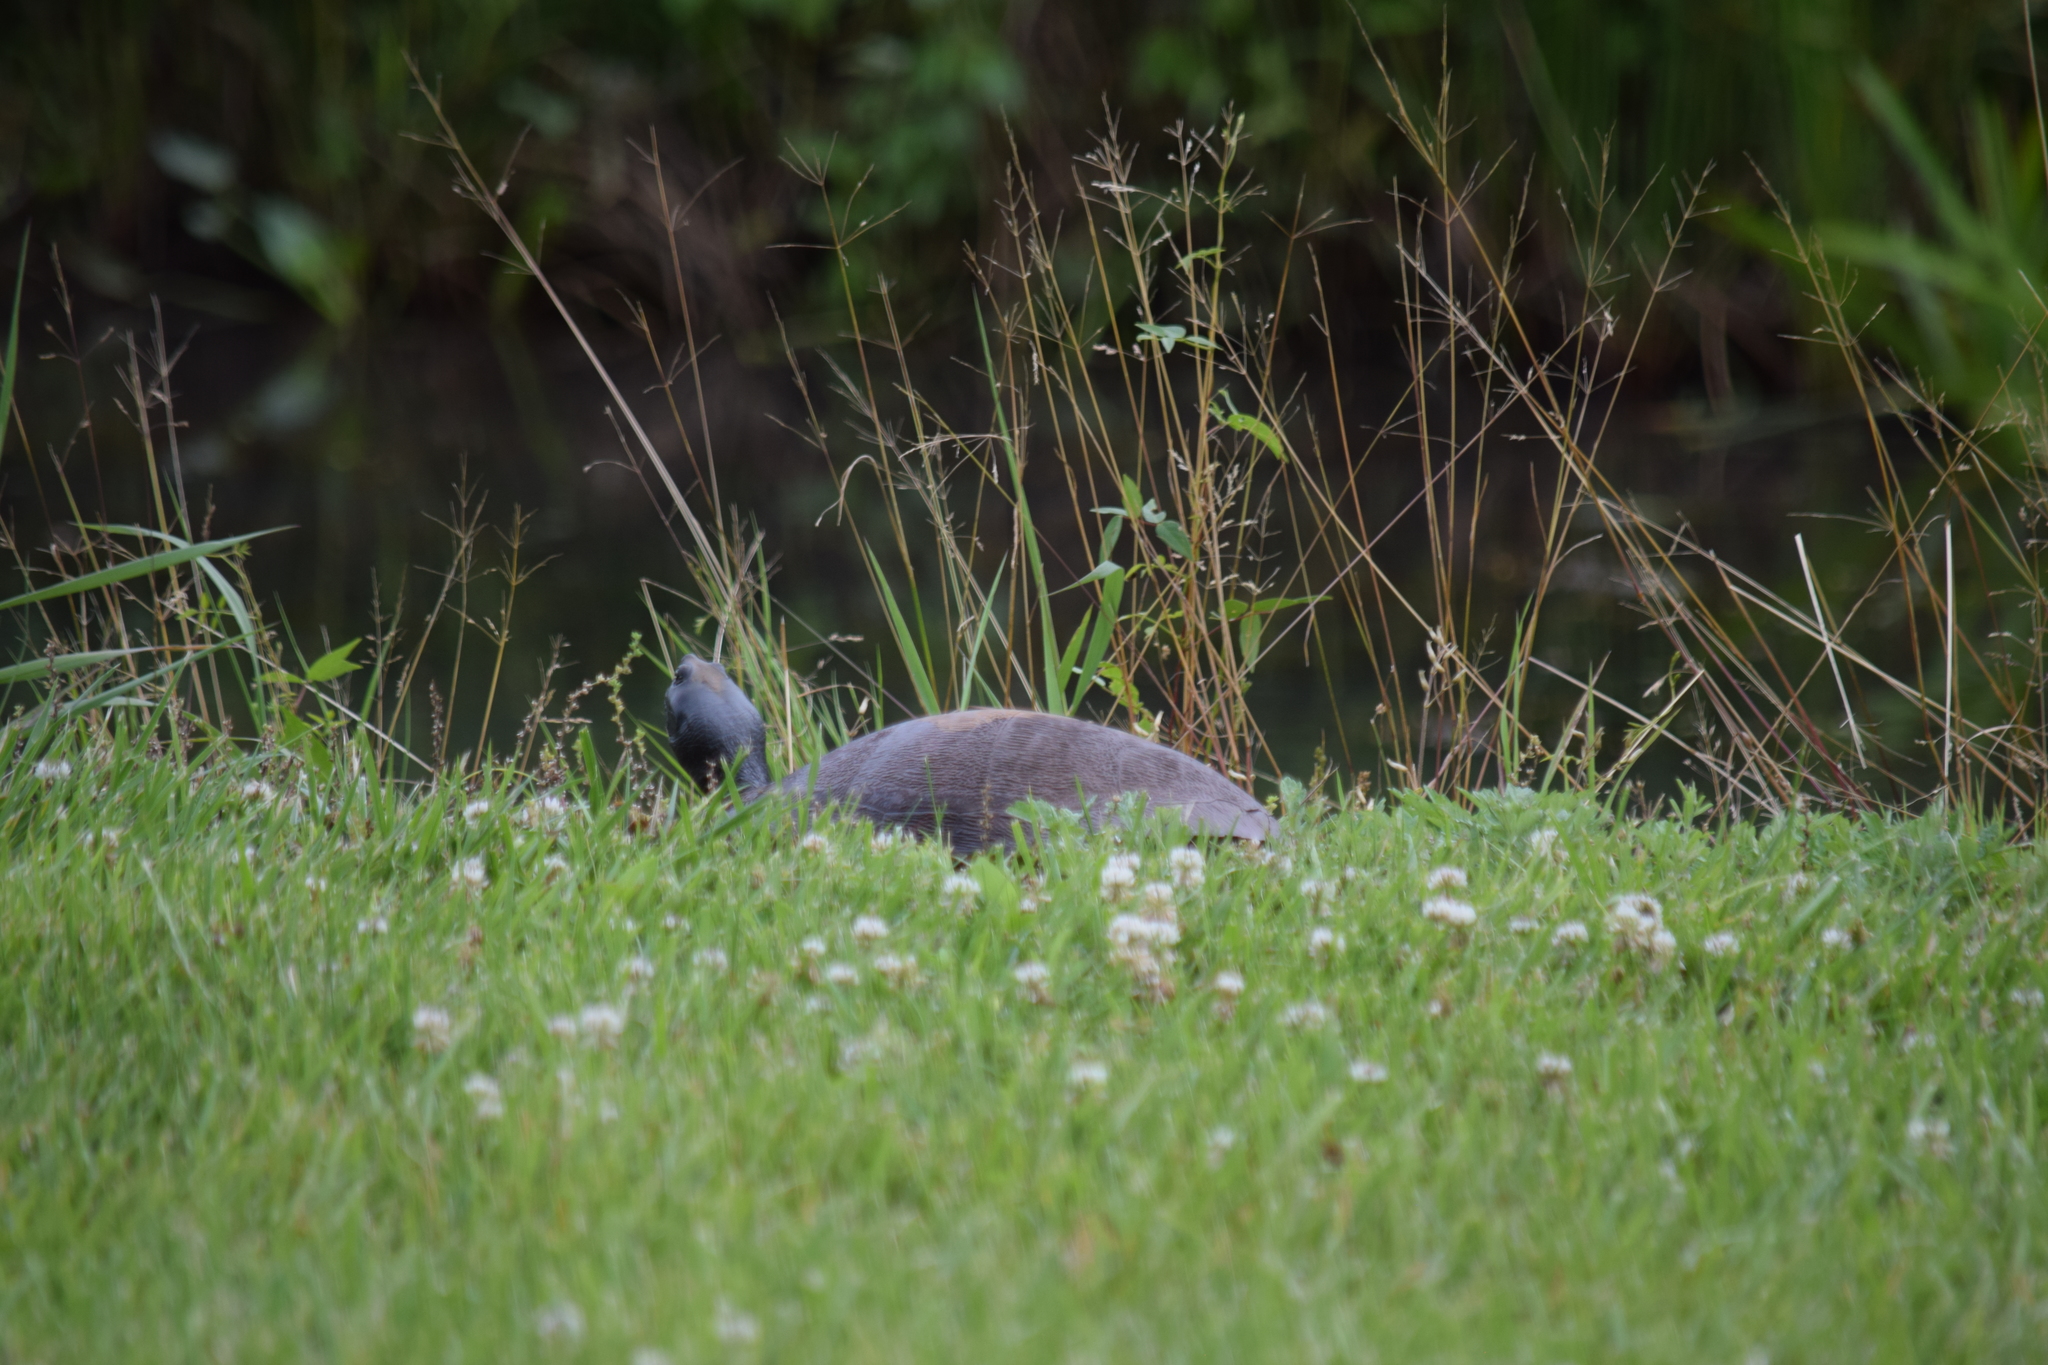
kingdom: Animalia
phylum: Chordata
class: Testudines
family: Emydidae
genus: Pseudemys
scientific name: Pseudemys rubriventris
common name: American red-bellied turtle
